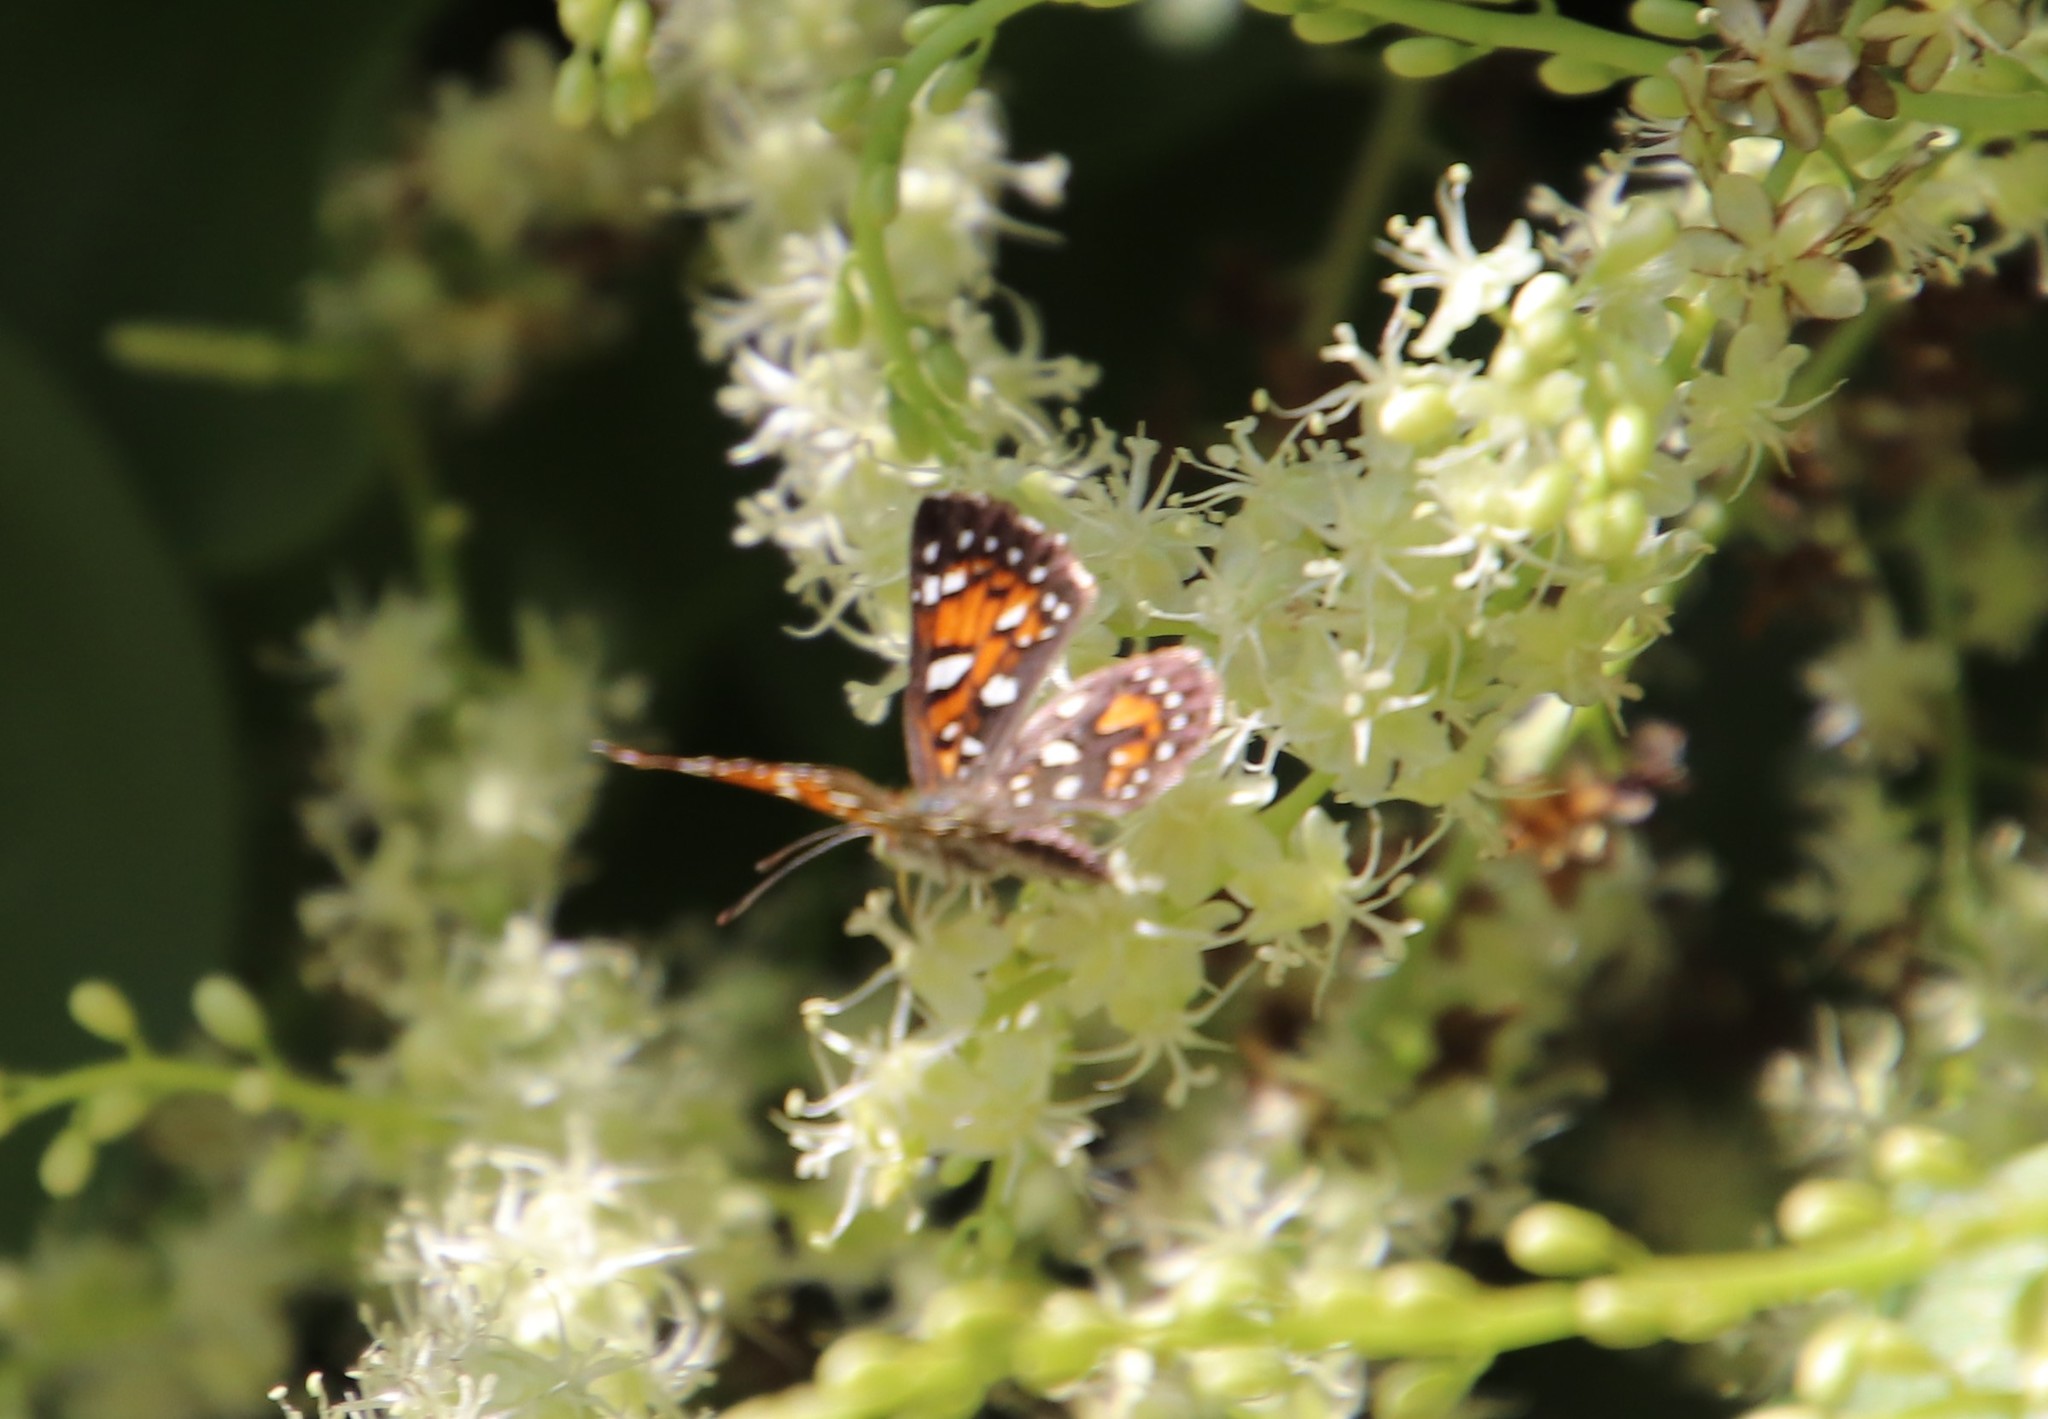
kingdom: Animalia
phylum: Arthropoda
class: Insecta
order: Lepidoptera
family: Riodinidae
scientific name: Riodinidae
